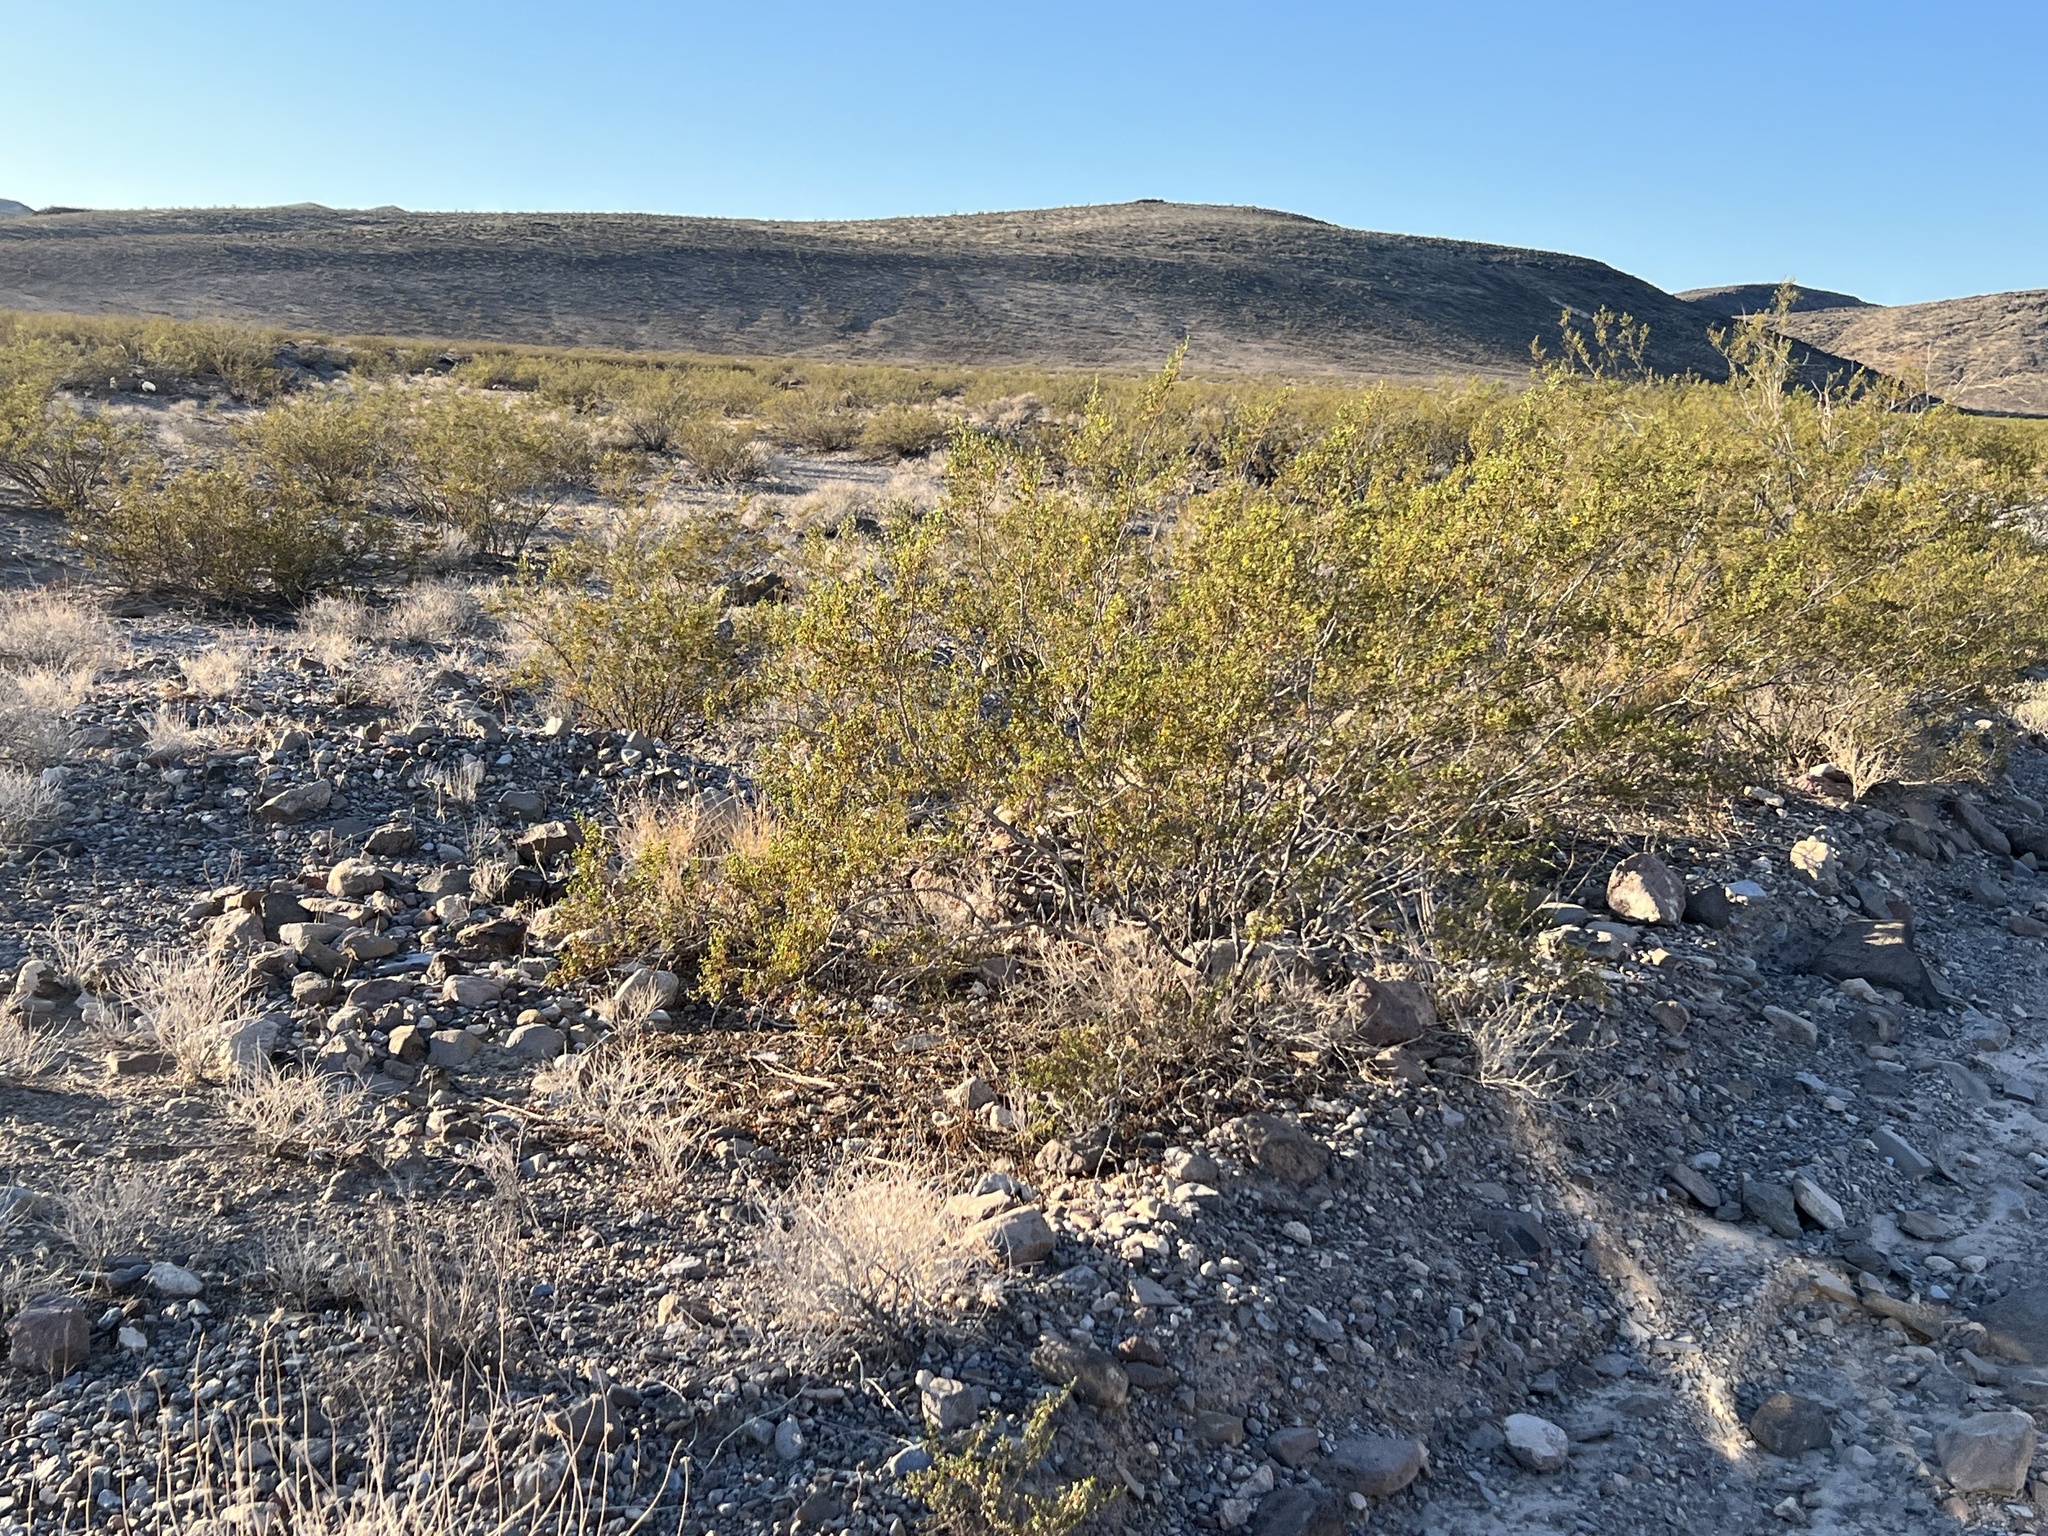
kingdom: Plantae
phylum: Tracheophyta
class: Magnoliopsida
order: Zygophyllales
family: Zygophyllaceae
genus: Larrea
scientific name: Larrea tridentata
